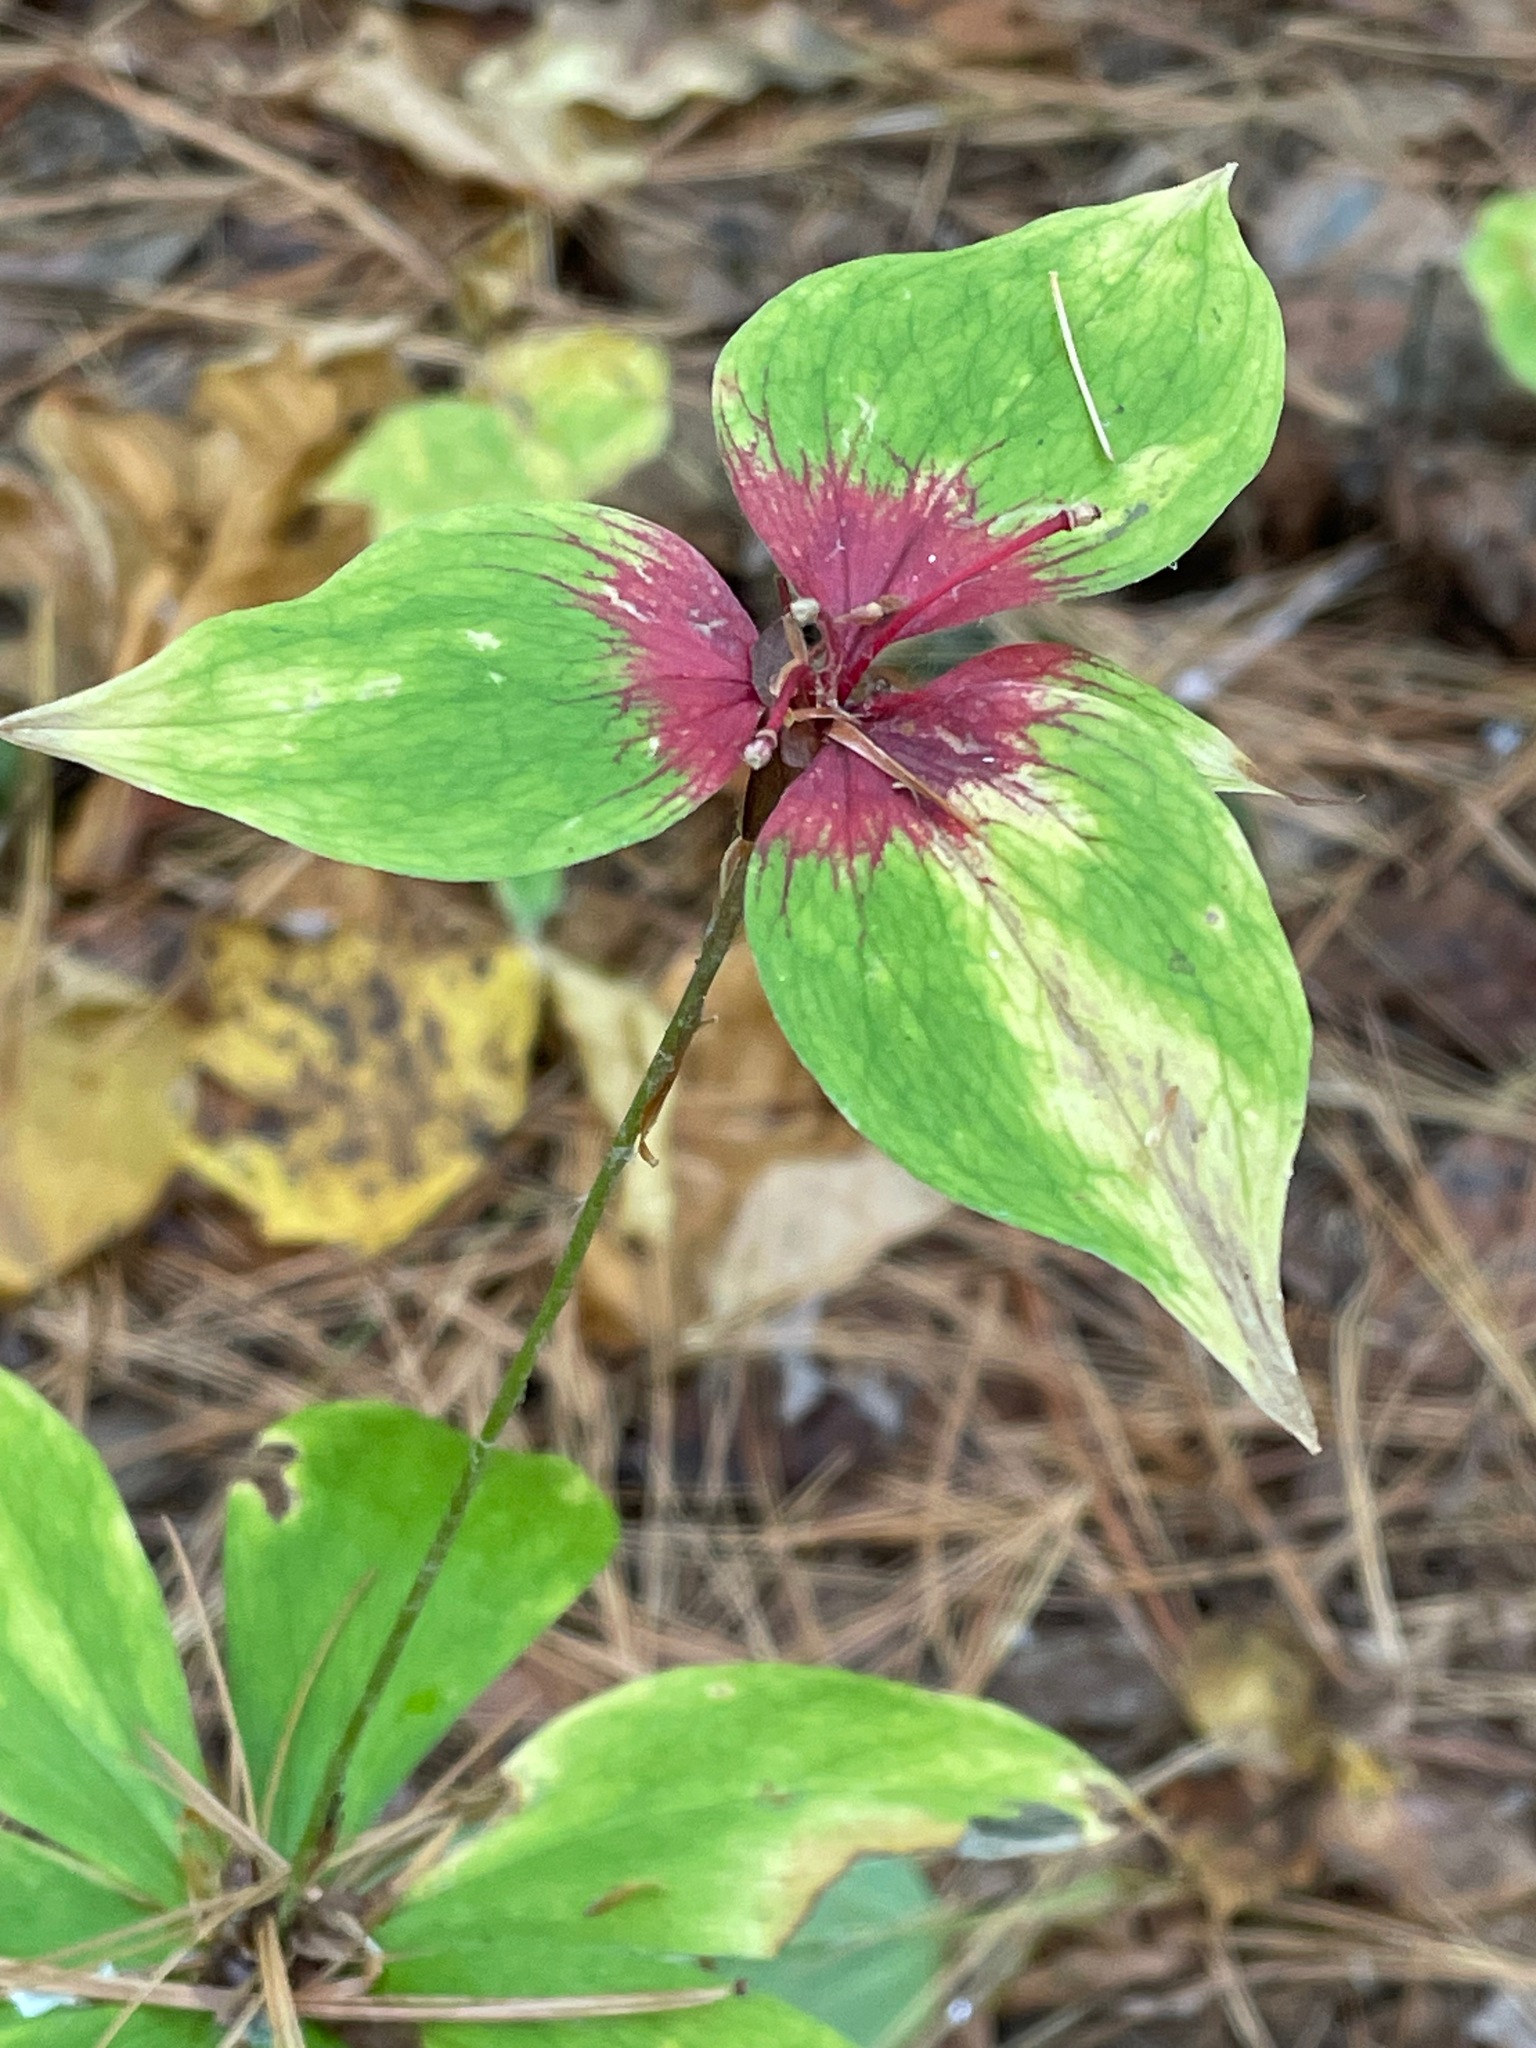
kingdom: Plantae
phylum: Tracheophyta
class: Liliopsida
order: Liliales
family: Liliaceae
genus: Medeola
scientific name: Medeola virginiana
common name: Indian cucumber-root
